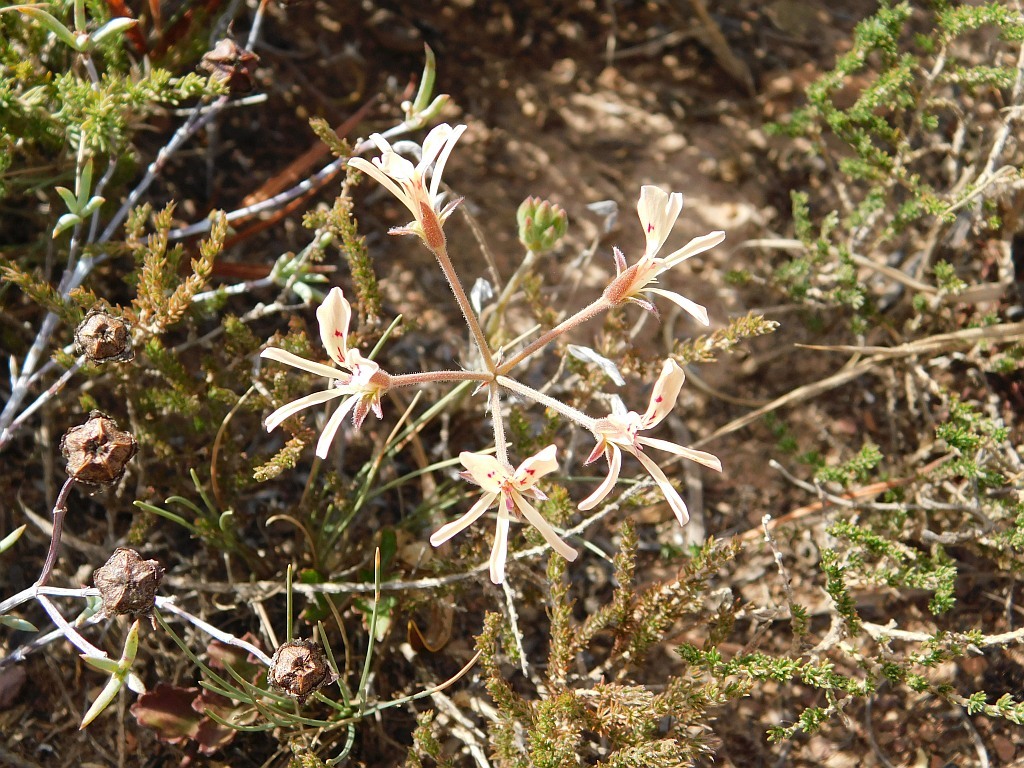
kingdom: Plantae
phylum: Tracheophyta
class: Magnoliopsida
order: Geraniales
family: Geraniaceae
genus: Pelargonium
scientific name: Pelargonium pinnatum
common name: Pinnated pelargonium
